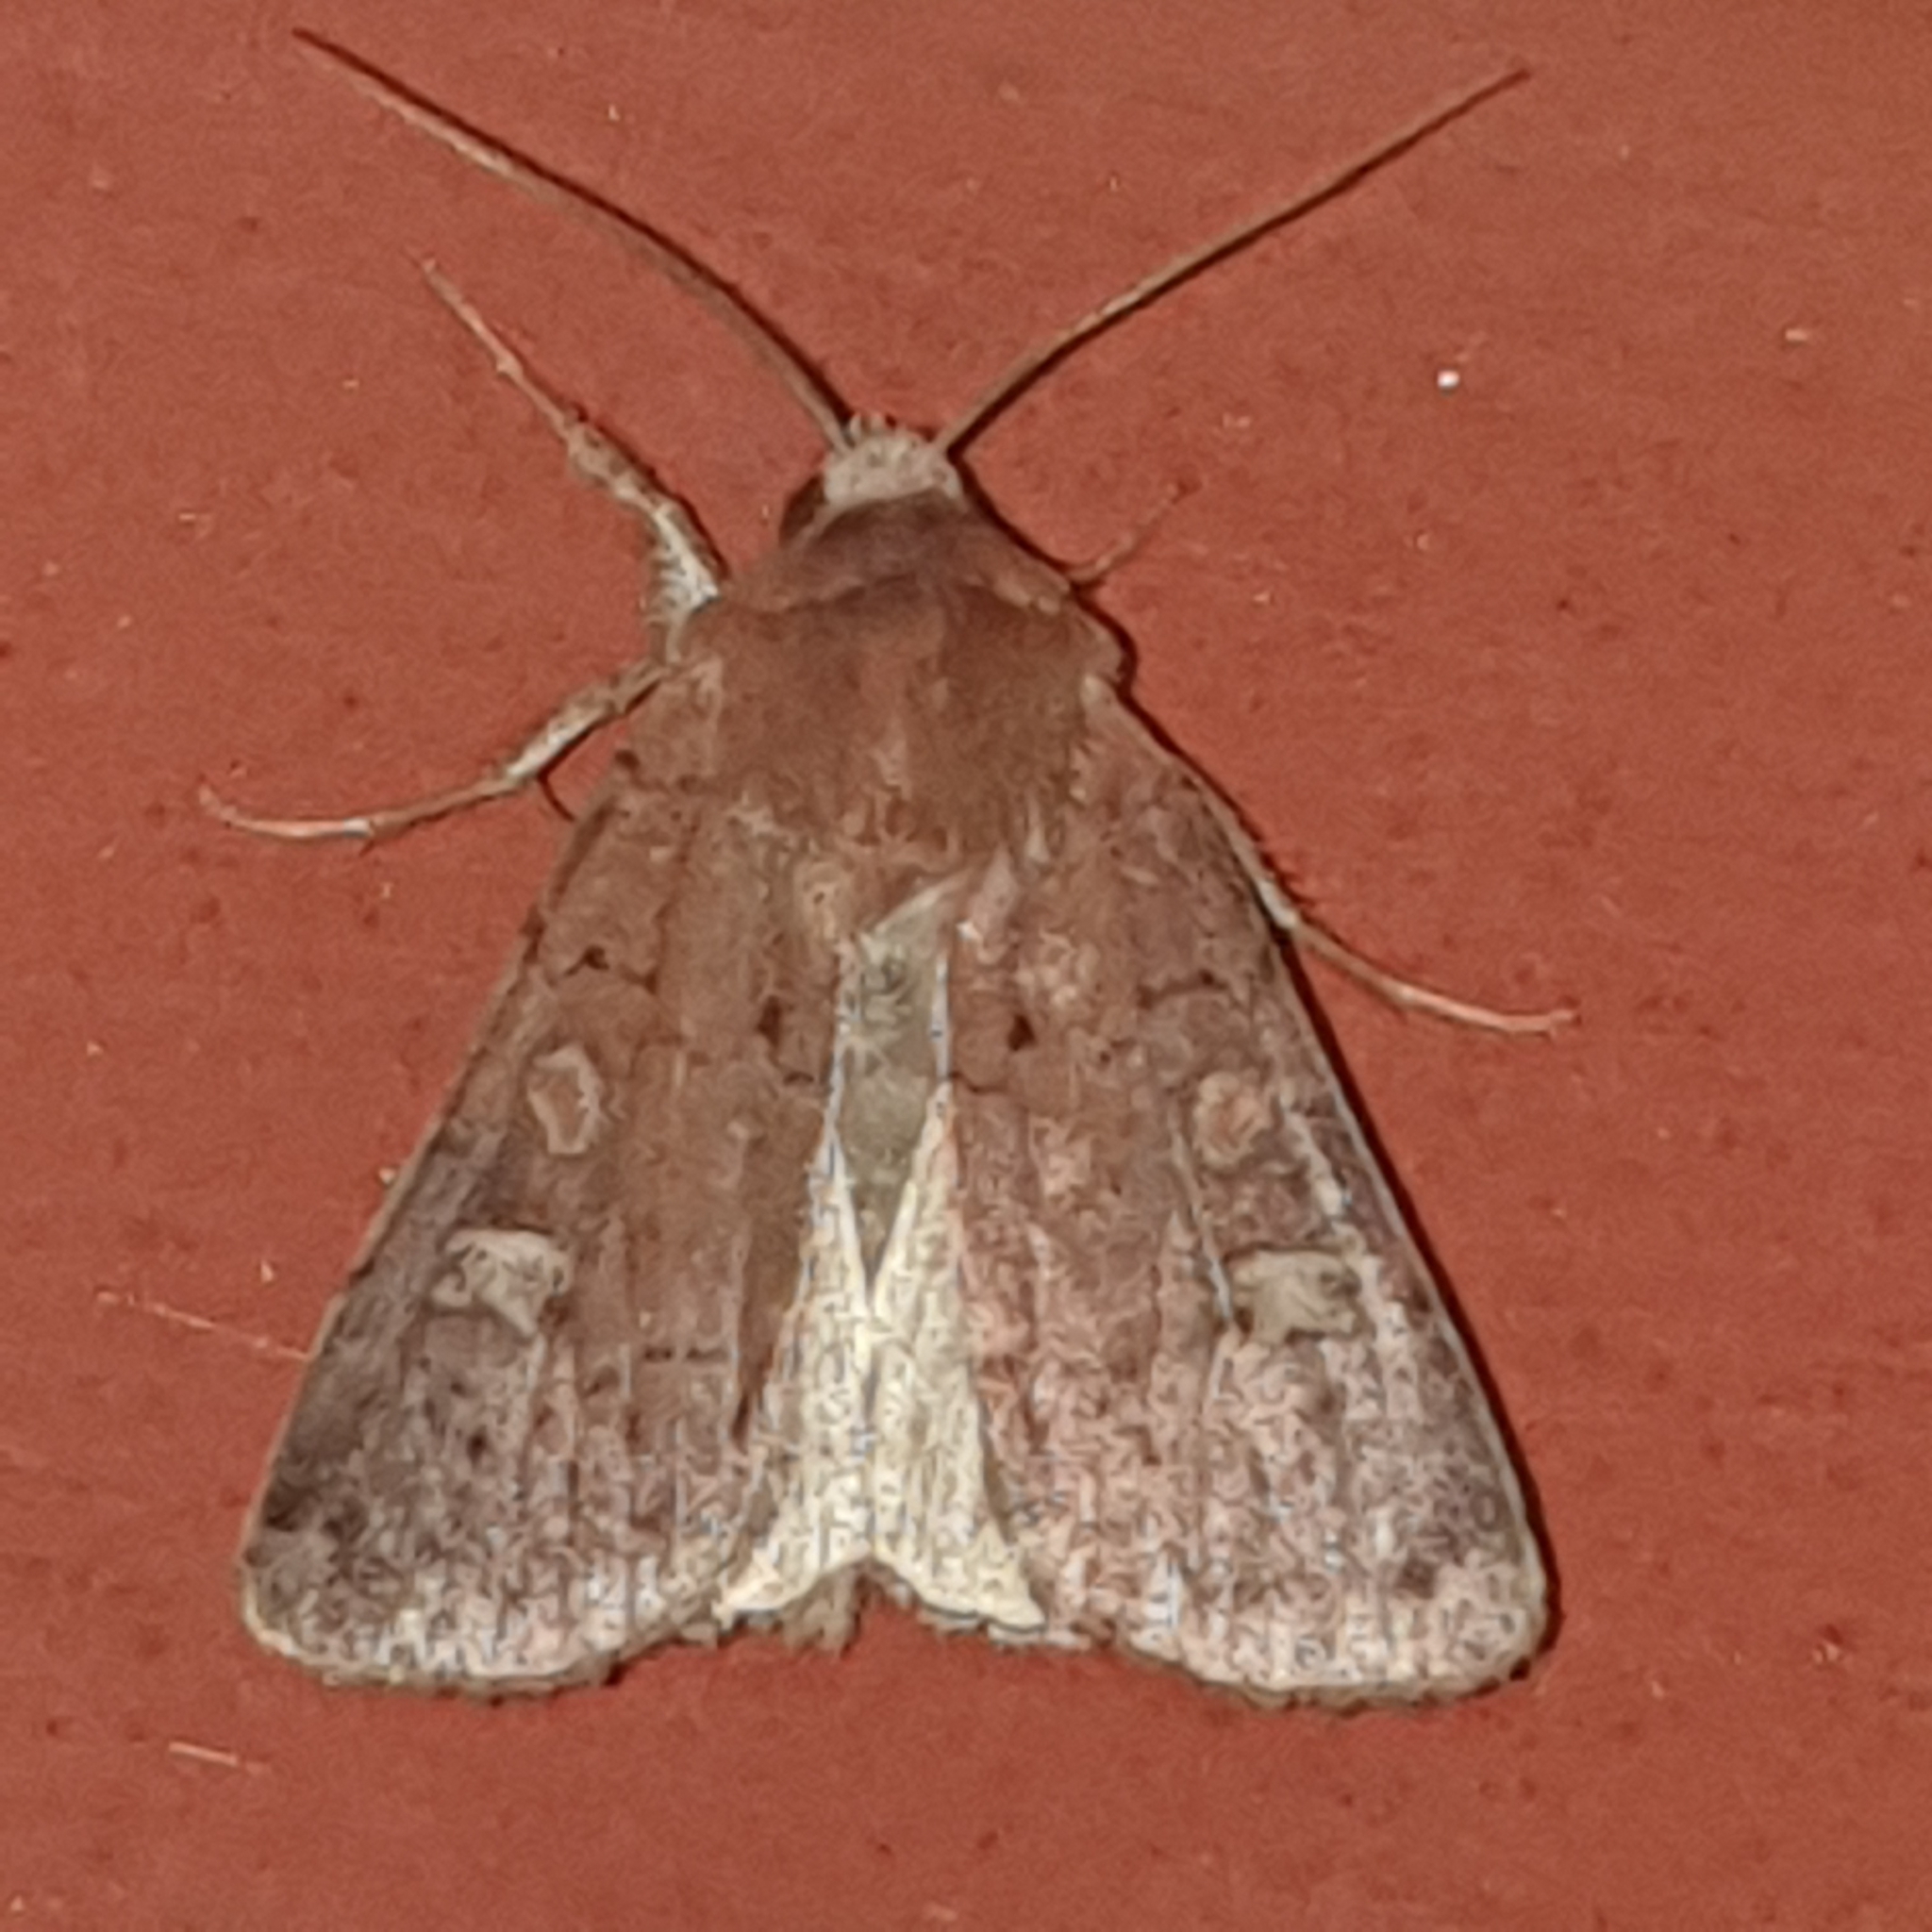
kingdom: Animalia
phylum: Arthropoda
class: Insecta
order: Lepidoptera
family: Noctuidae
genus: Xestia
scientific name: Xestia xanthographa
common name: Square-spot rustic
